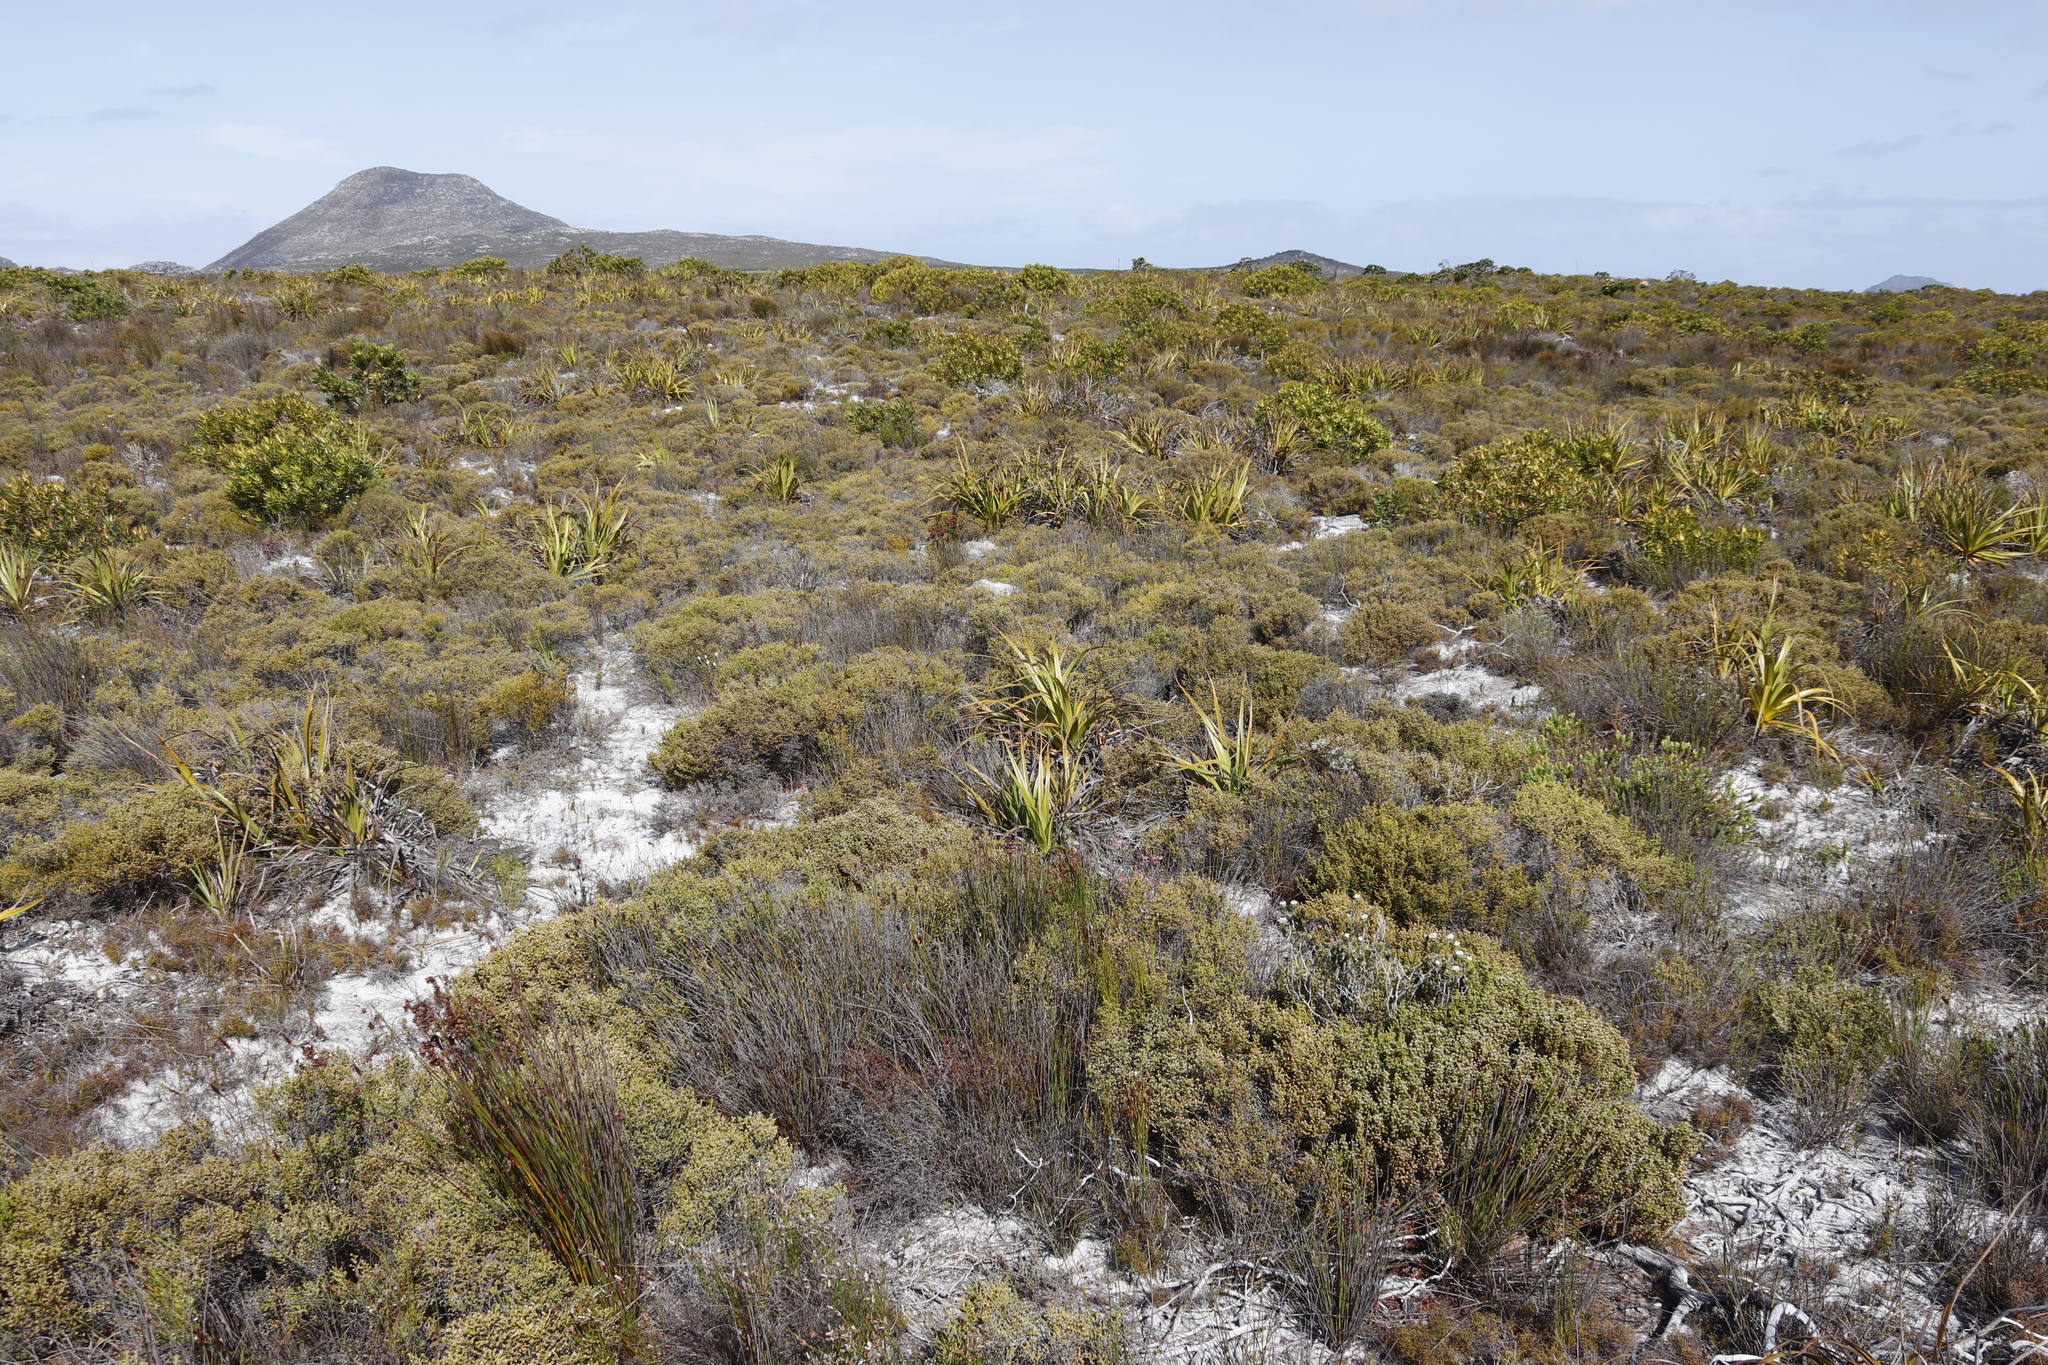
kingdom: Plantae
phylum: Tracheophyta
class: Liliopsida
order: Poales
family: Cyperaceae
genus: Tetraria
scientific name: Tetraria thermalis
